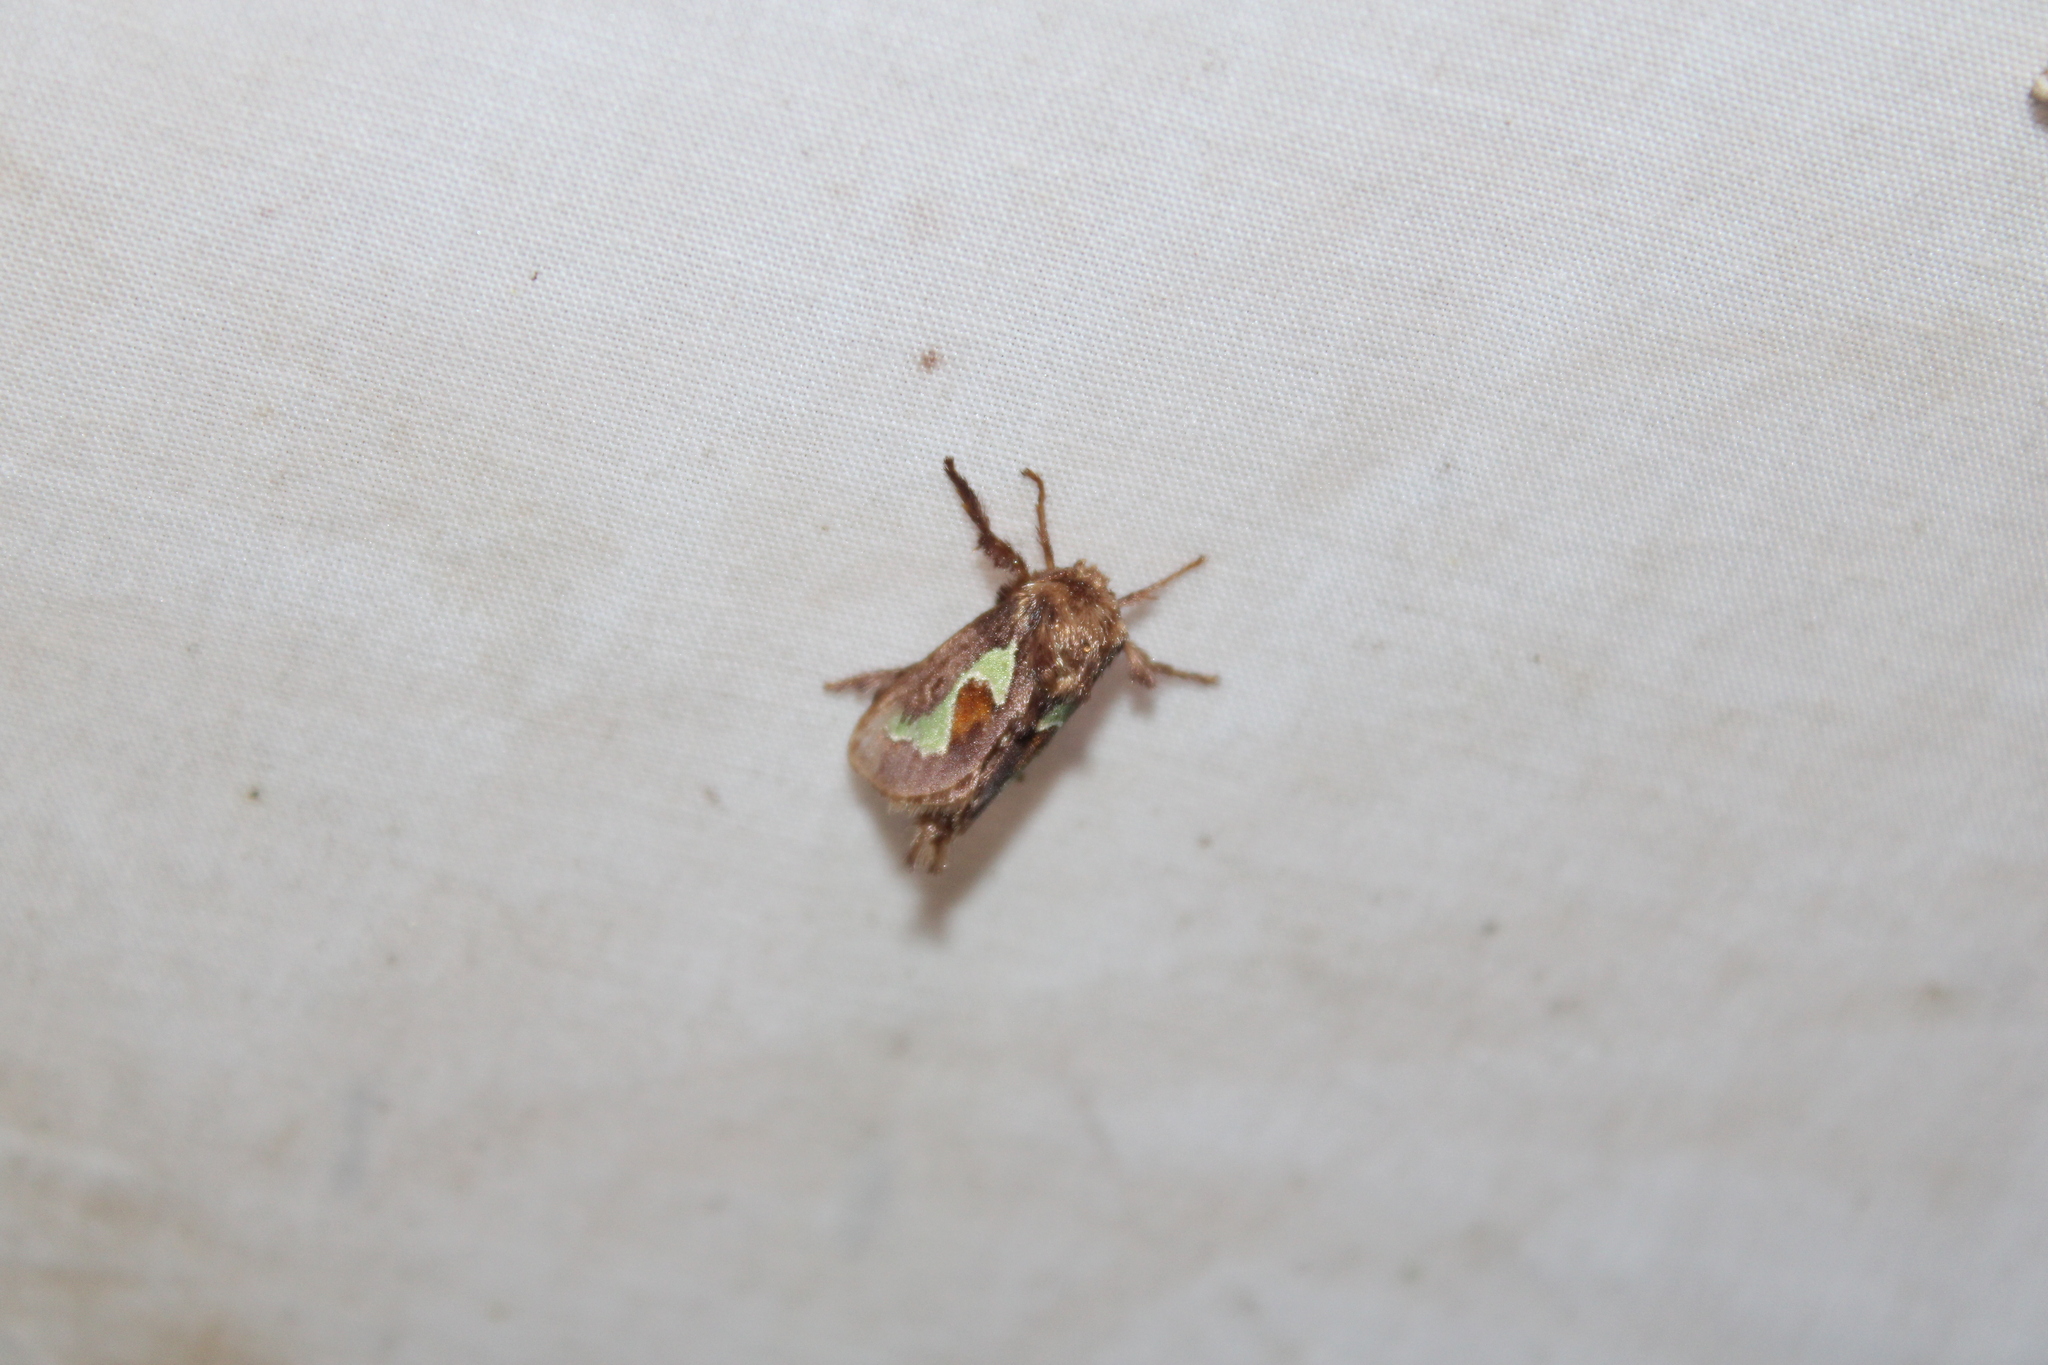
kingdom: Animalia
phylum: Arthropoda
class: Insecta
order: Lepidoptera
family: Limacodidae
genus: Euclea
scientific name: Euclea delphinii
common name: Spiny oak-slug moth
